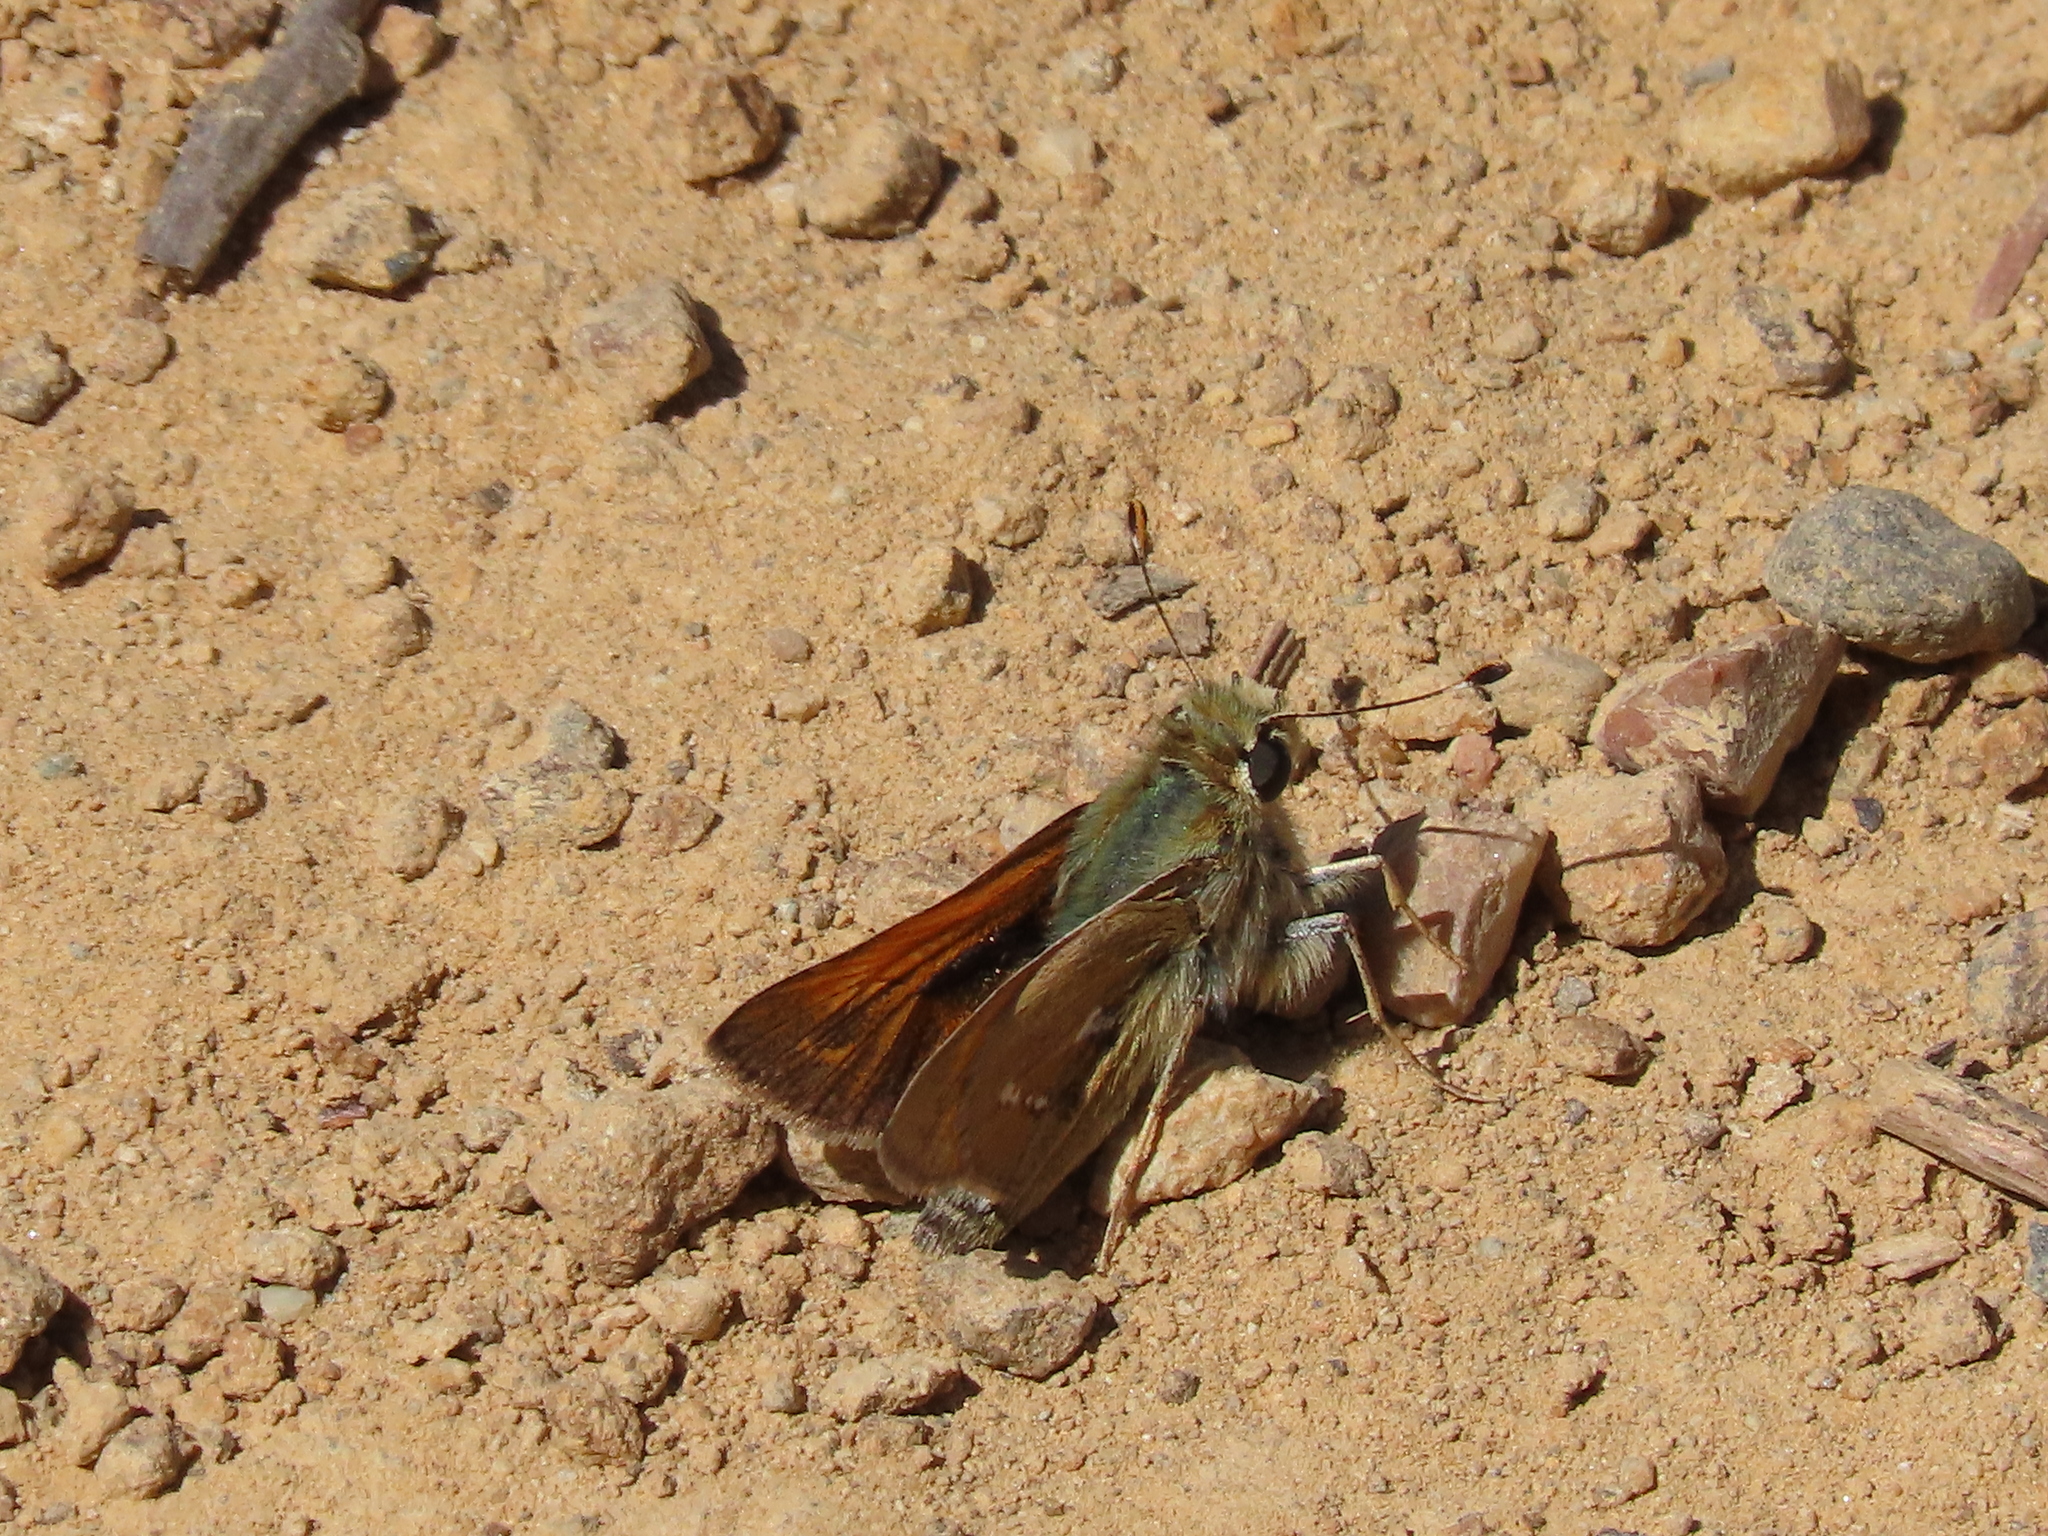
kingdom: Animalia
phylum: Arthropoda
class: Insecta
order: Lepidoptera
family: Hesperiidae
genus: Hesperia
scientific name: Hesperia columbia
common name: Columbian skipper
